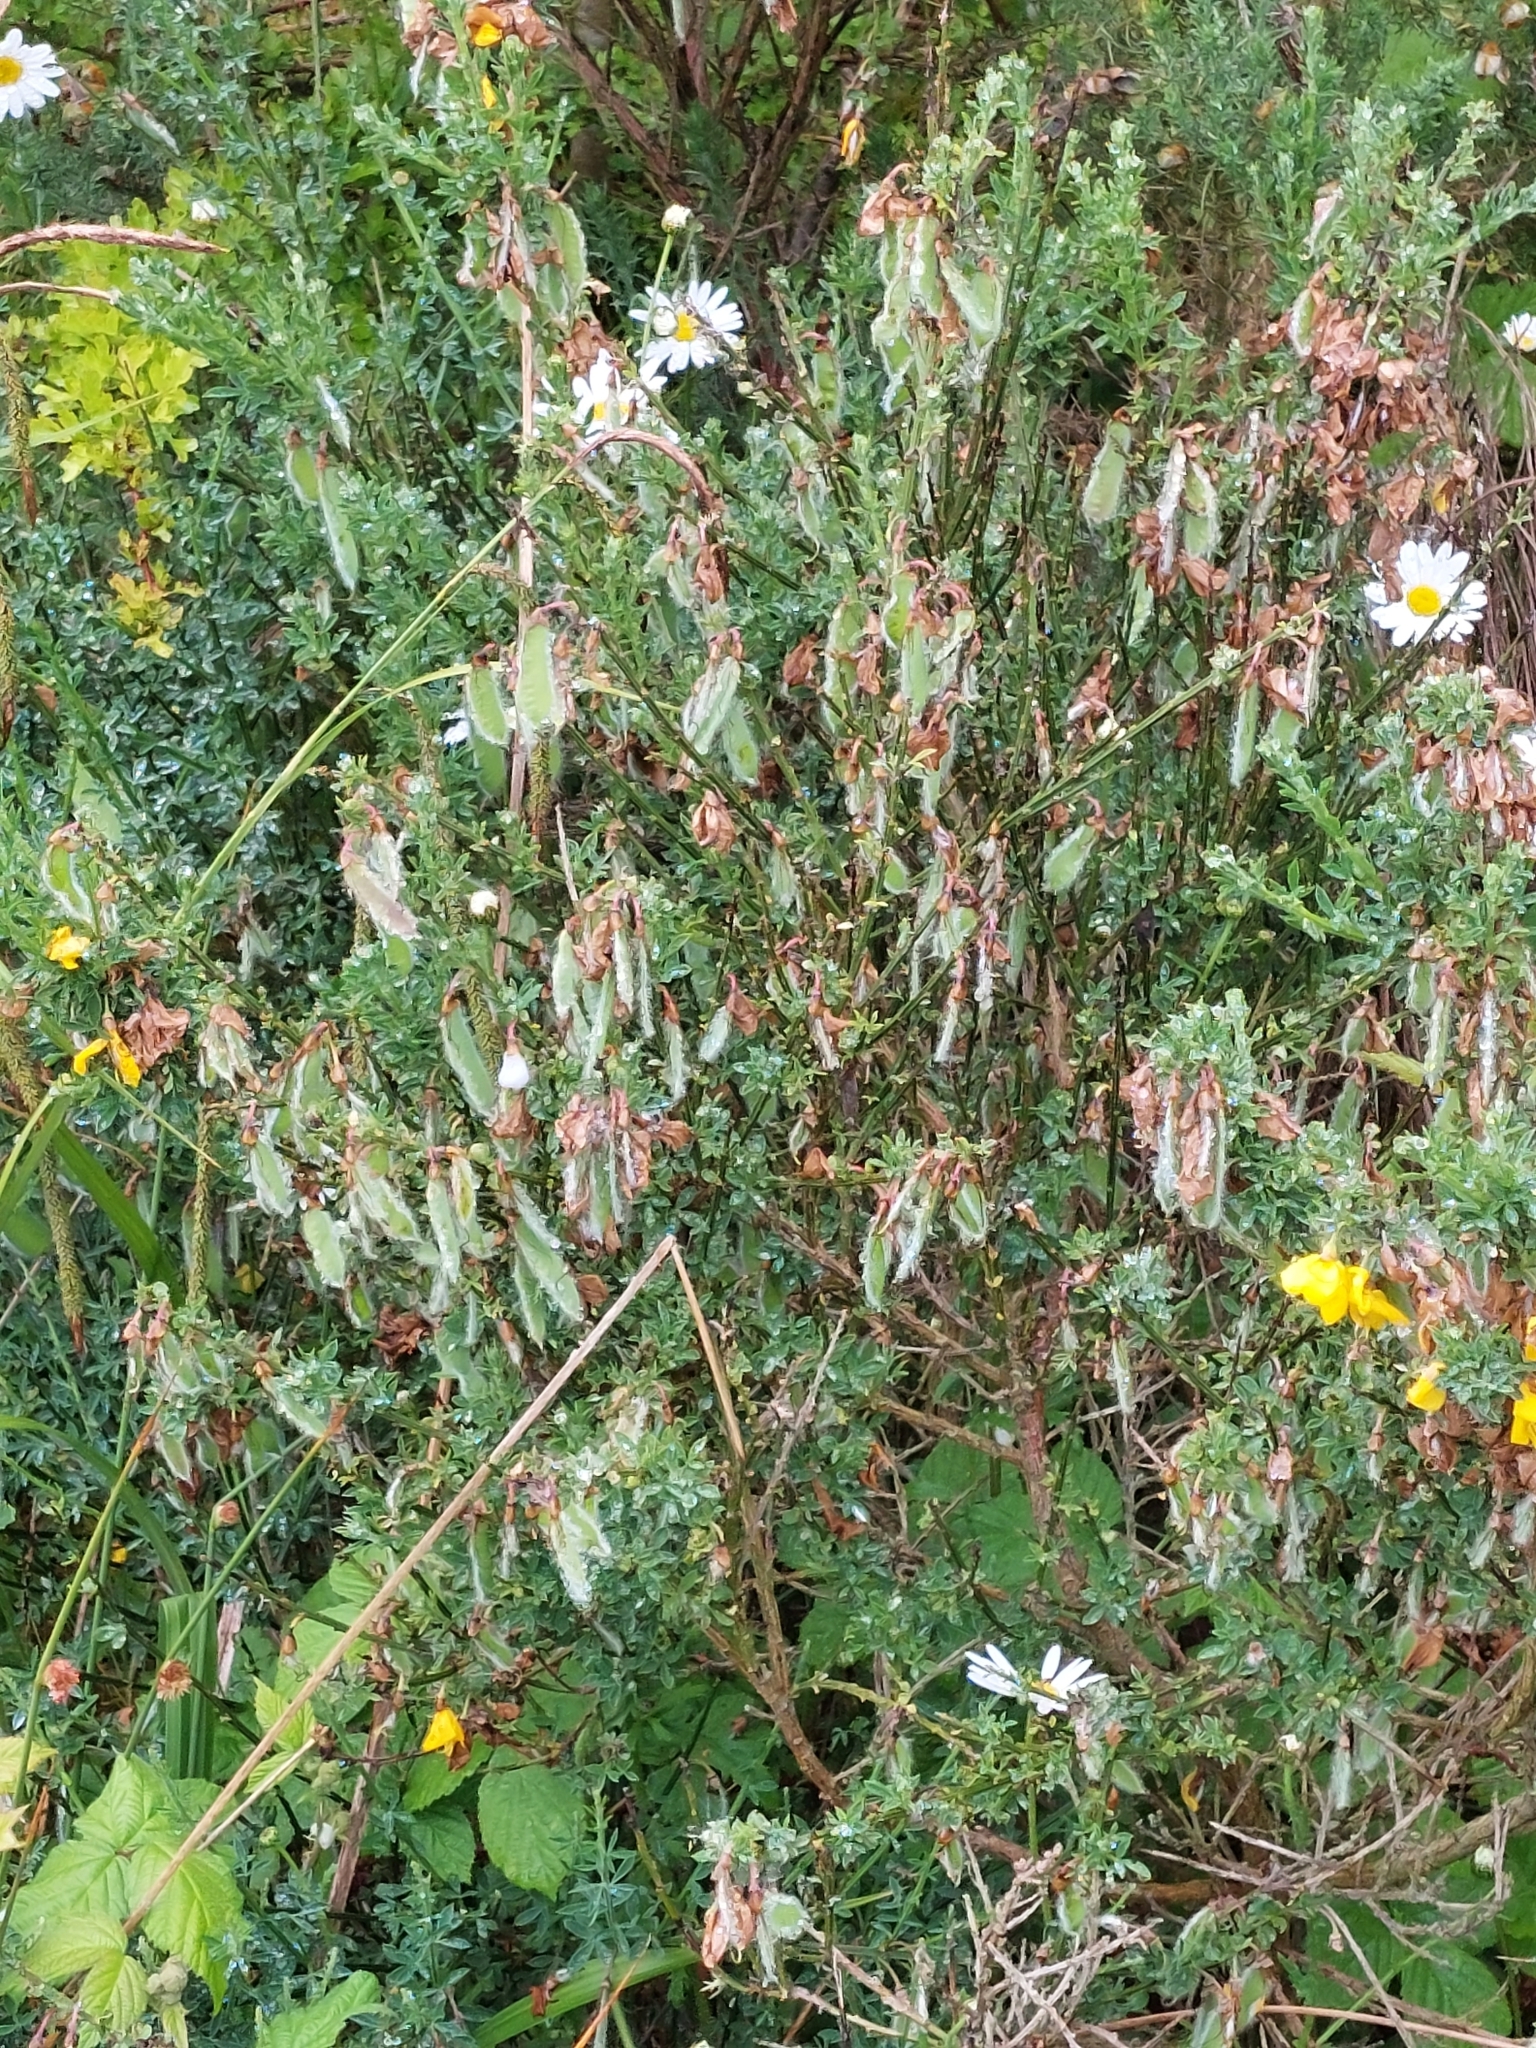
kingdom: Plantae
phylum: Tracheophyta
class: Magnoliopsida
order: Fabales
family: Fabaceae
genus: Cytisus
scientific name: Cytisus scoparius
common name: Scotch broom
